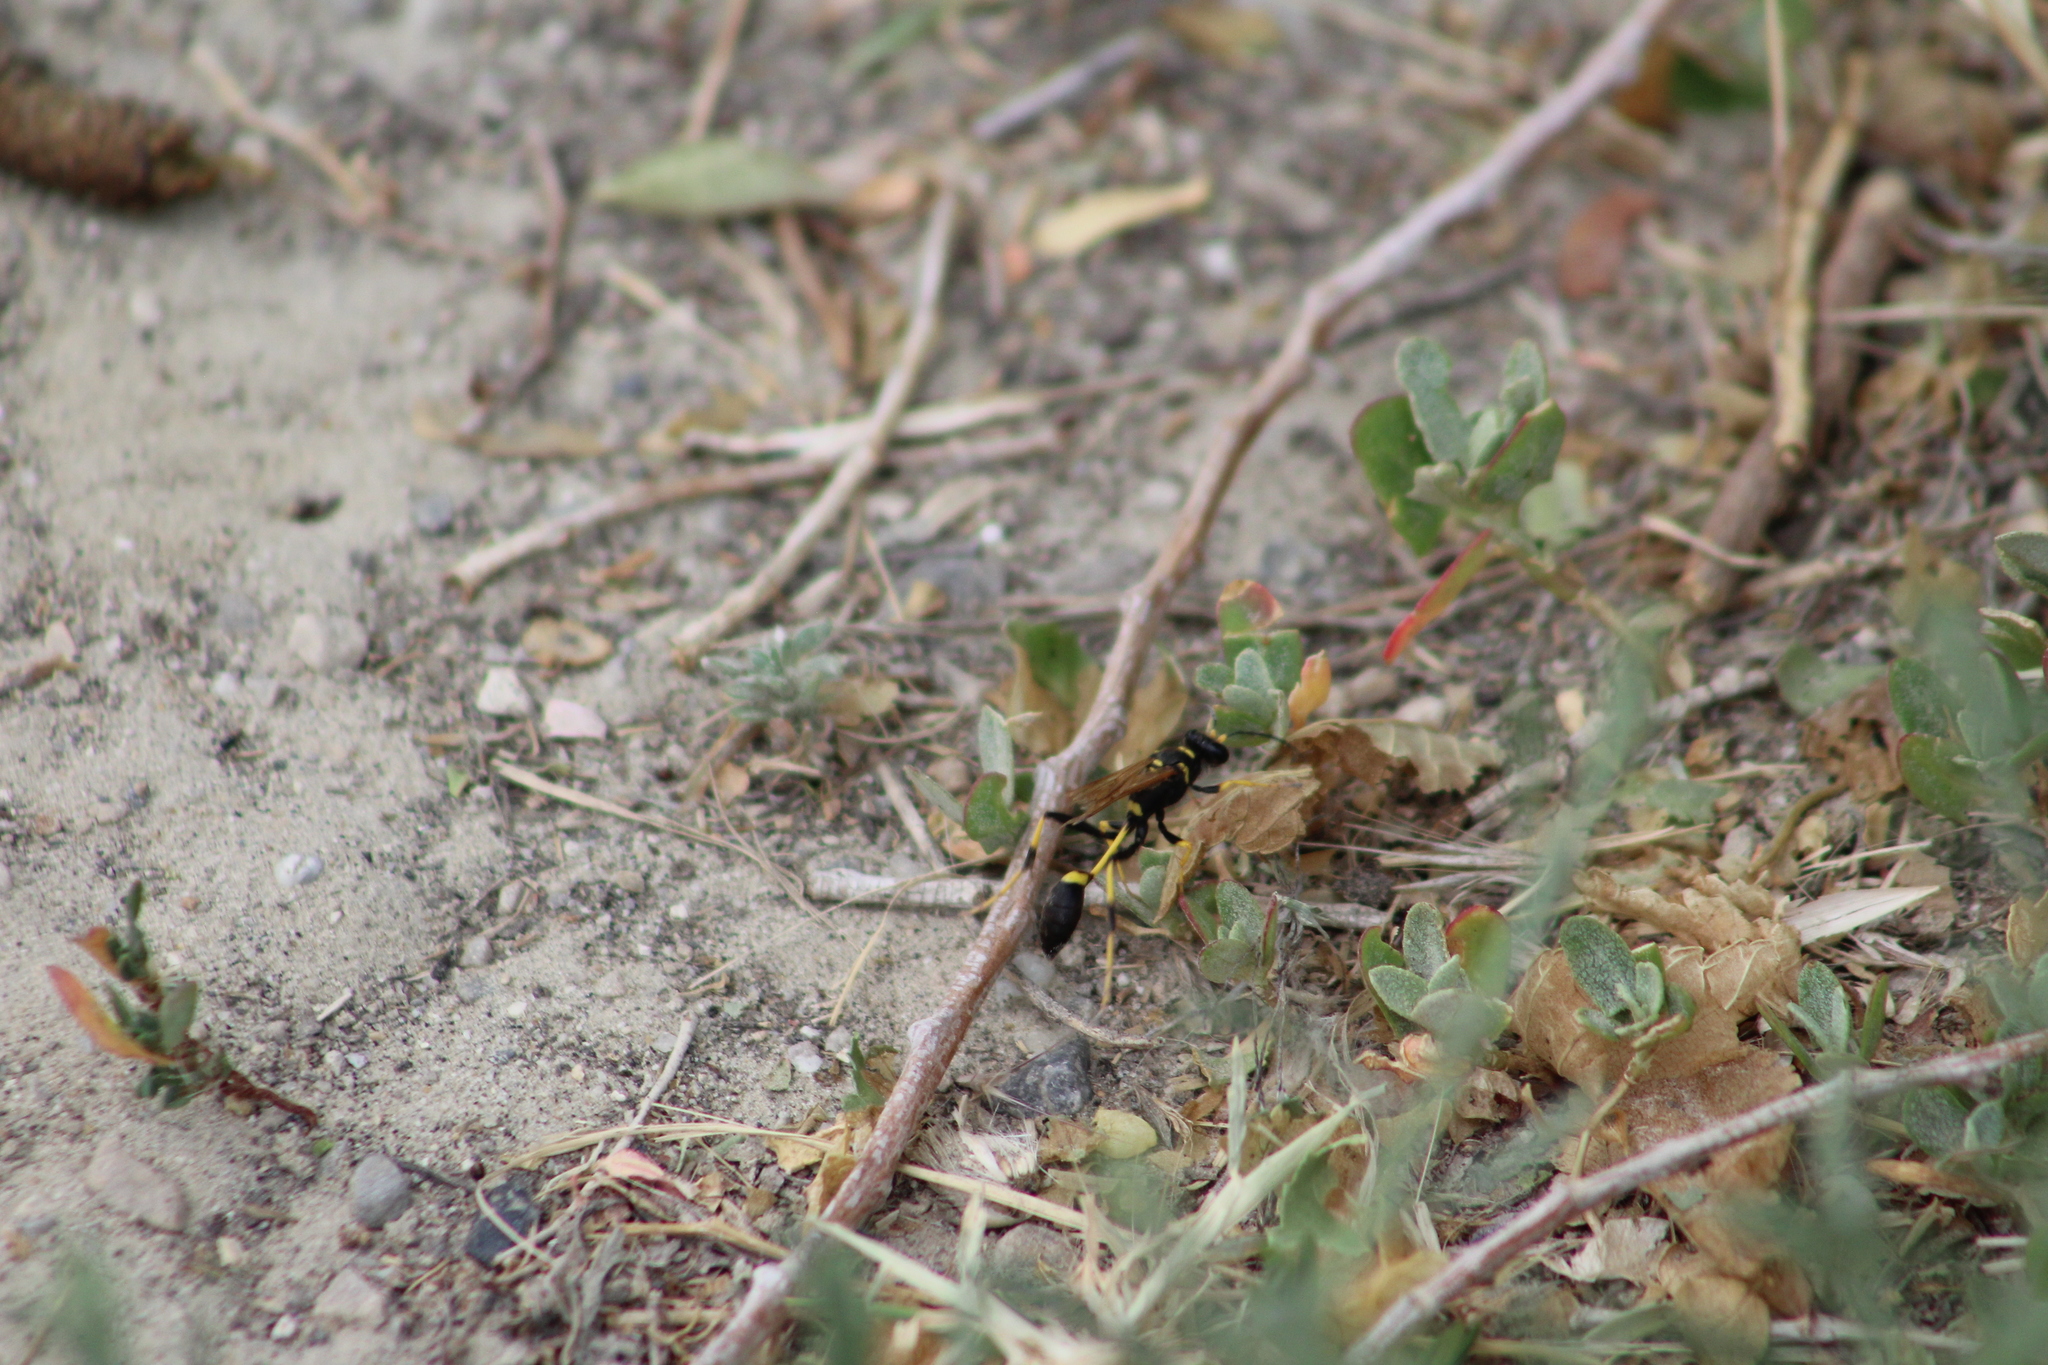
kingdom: Animalia
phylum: Arthropoda
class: Insecta
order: Hymenoptera
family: Sphecidae
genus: Sceliphron
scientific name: Sceliphron caementarium
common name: Mud dauber
